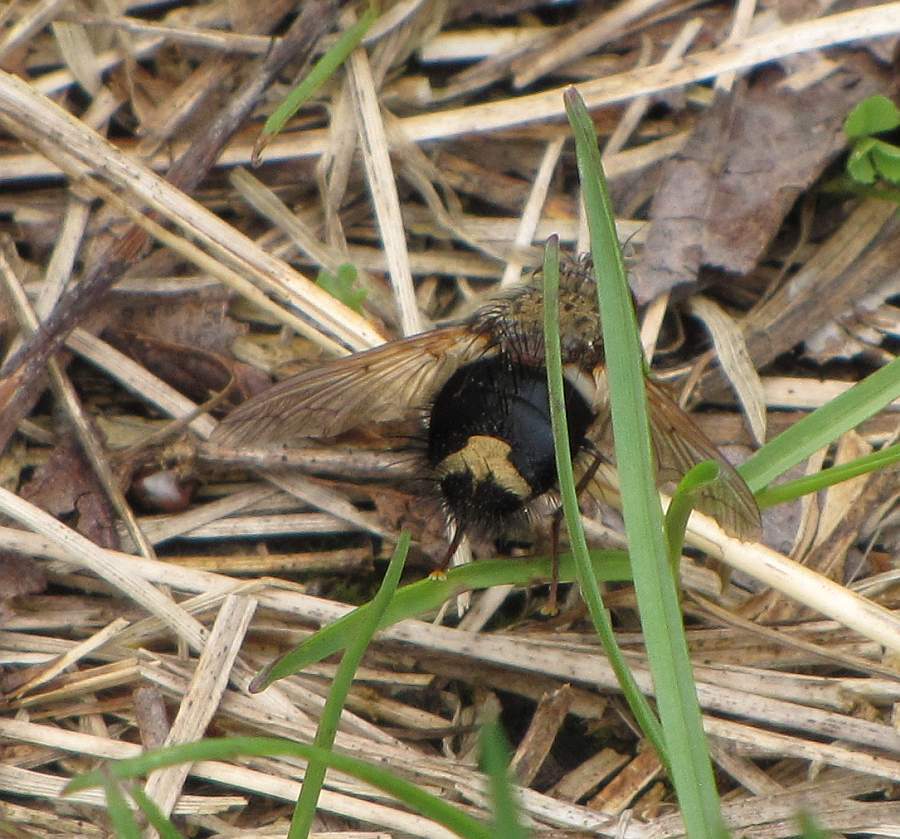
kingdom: Animalia
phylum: Arthropoda
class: Insecta
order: Diptera
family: Tachinidae
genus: Epalpus
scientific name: Epalpus signifer
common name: Early tachinid fly
